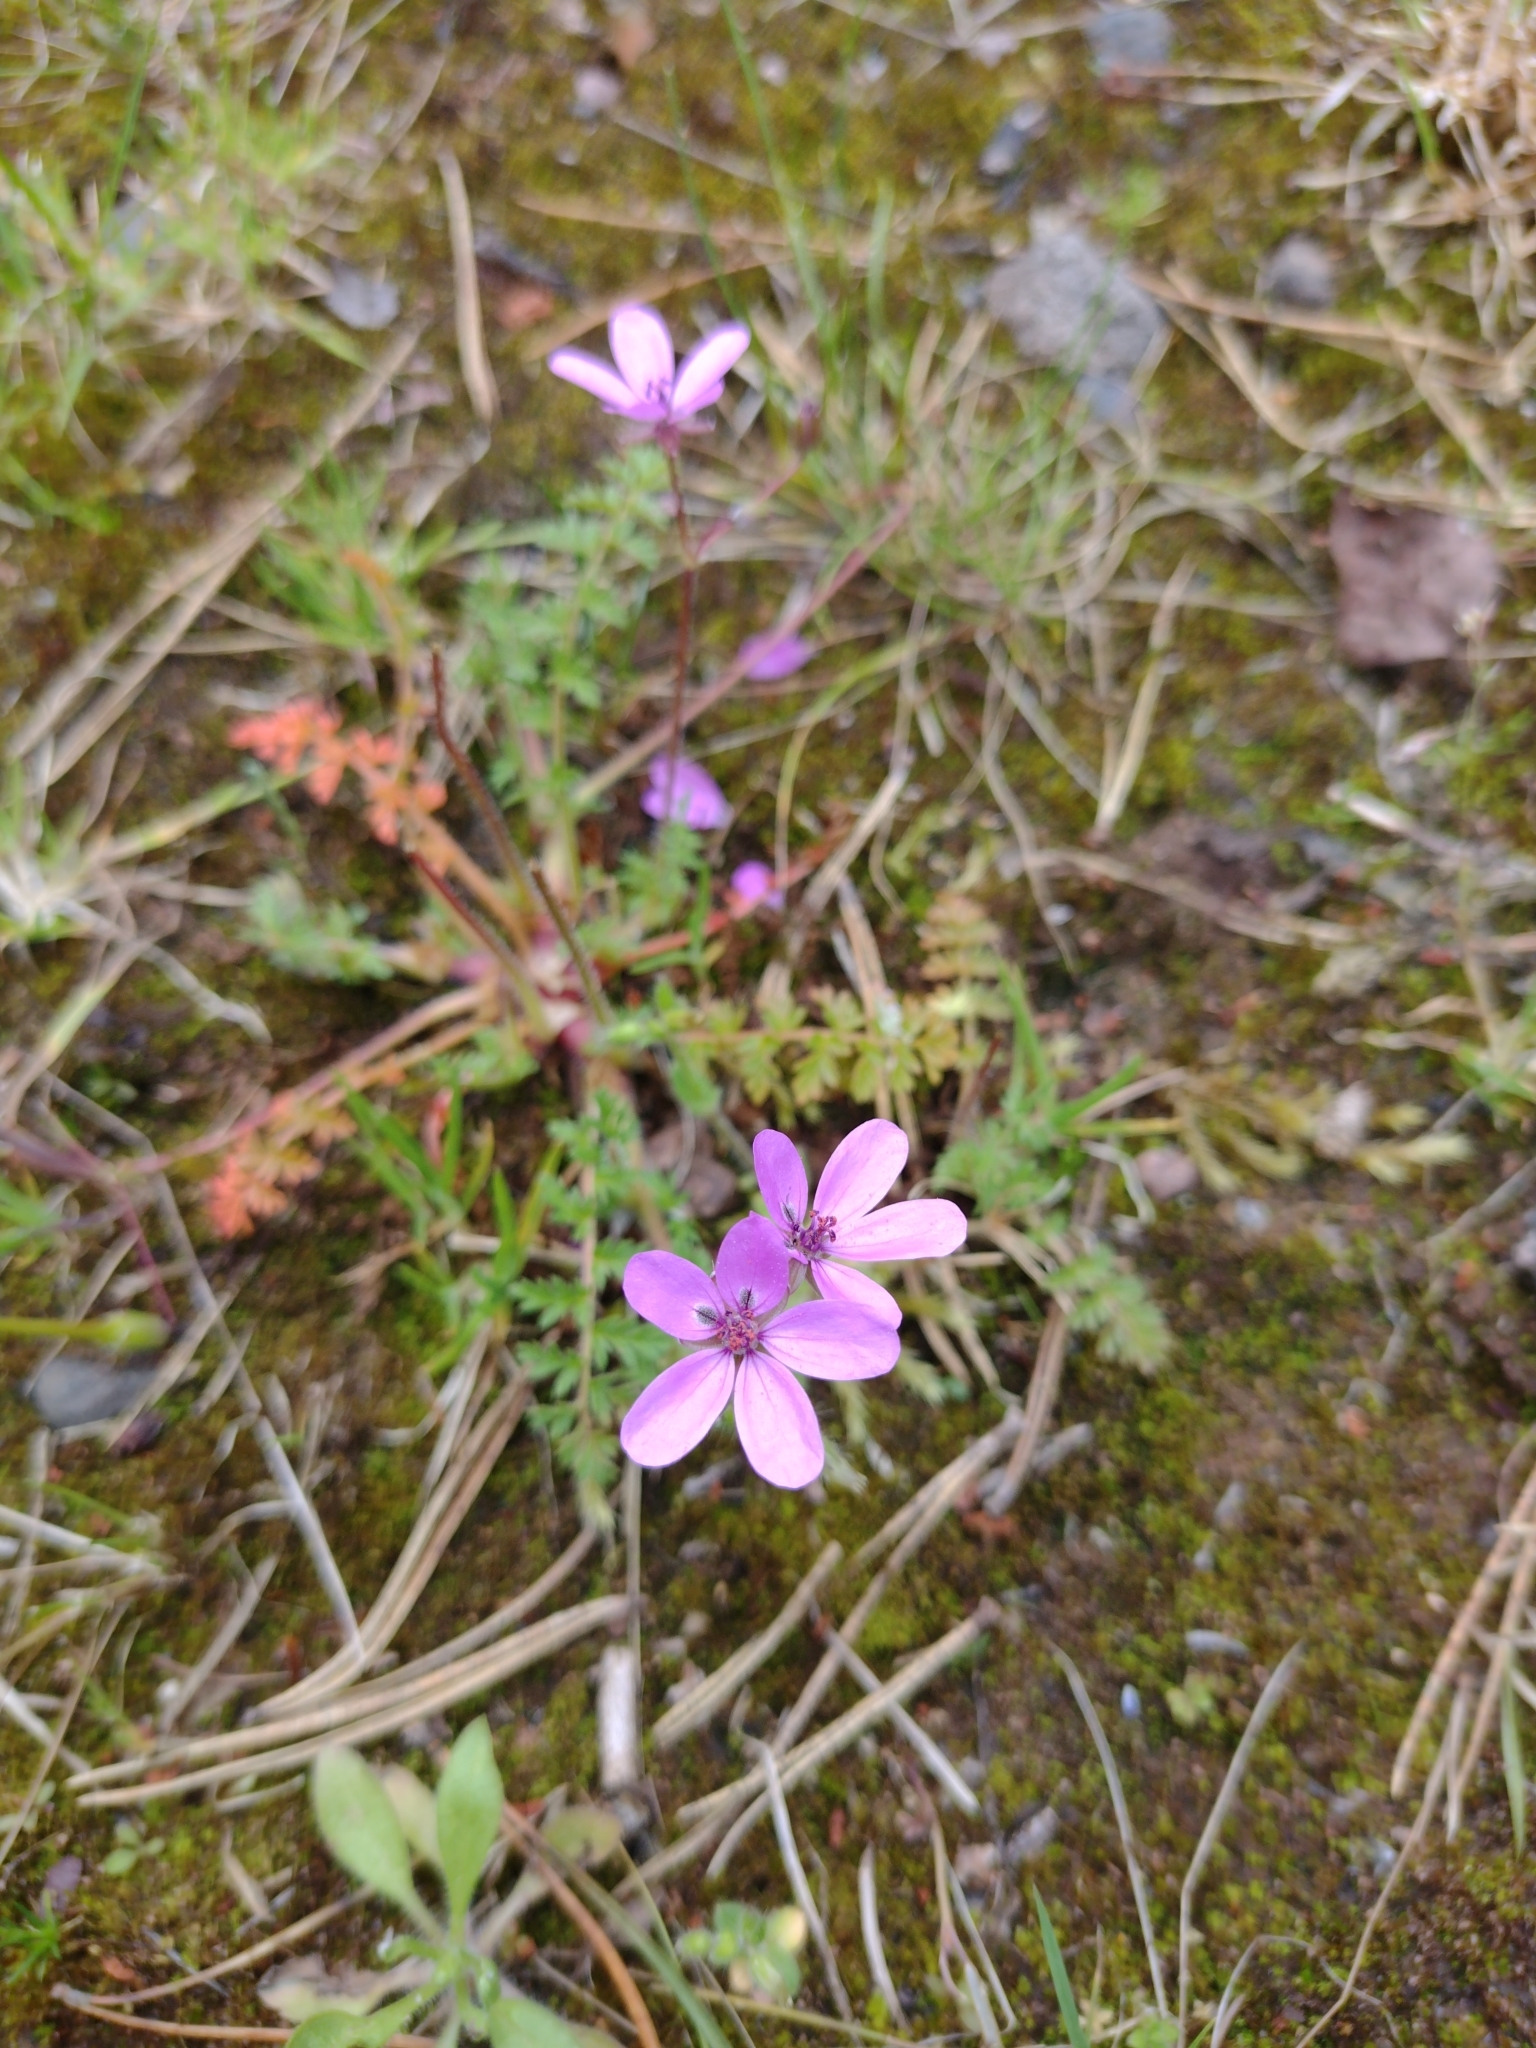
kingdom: Plantae
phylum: Tracheophyta
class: Magnoliopsida
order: Geraniales
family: Geraniaceae
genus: Erodium
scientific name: Erodium cicutarium
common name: Common stork's-bill
